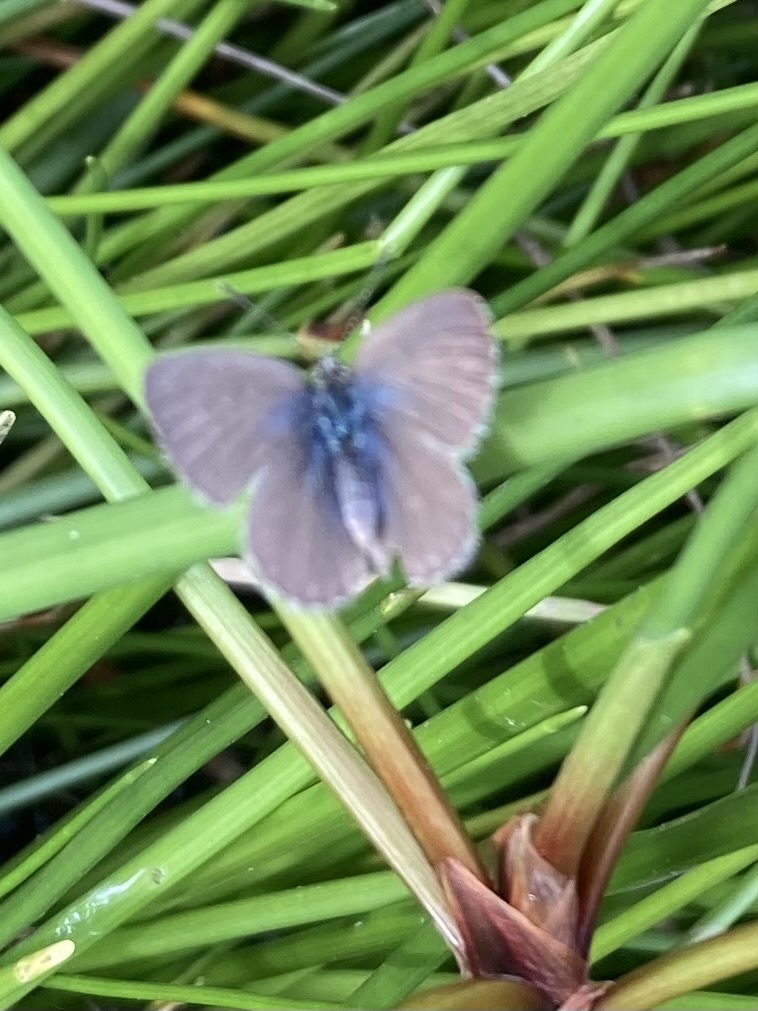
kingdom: Animalia
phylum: Arthropoda
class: Insecta
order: Lepidoptera
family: Lycaenidae
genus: Zizina
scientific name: Zizina otis
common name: Lesser grass blue
